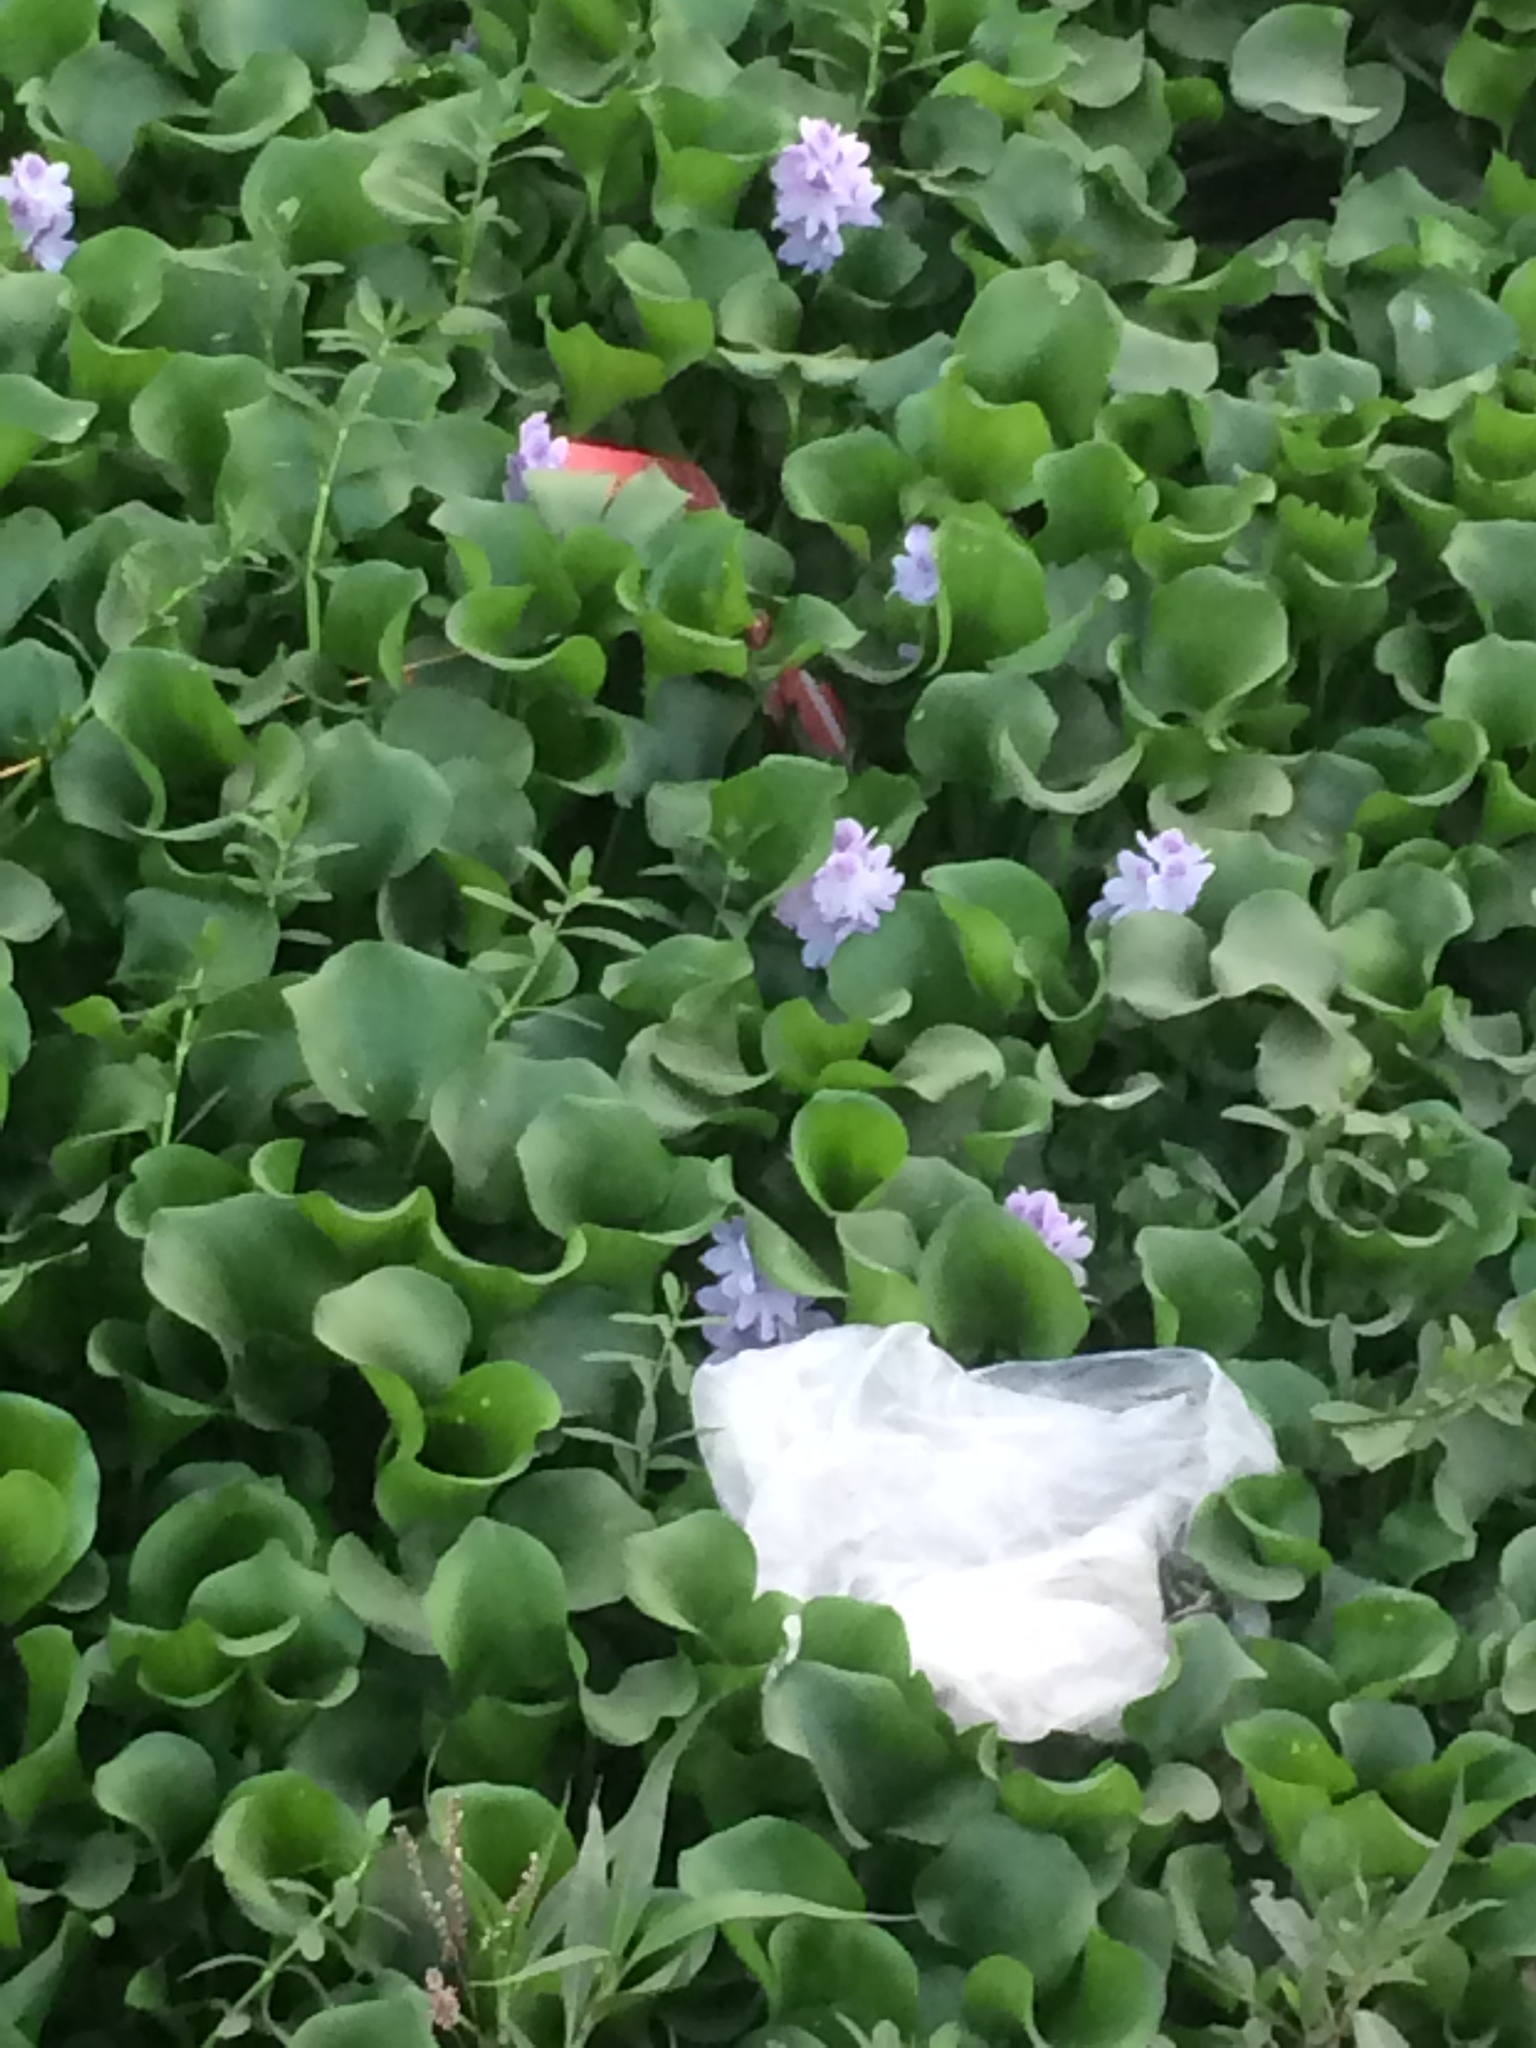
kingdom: Plantae
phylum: Tracheophyta
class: Liliopsida
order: Commelinales
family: Pontederiaceae
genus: Pontederia
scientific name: Pontederia crassipes
